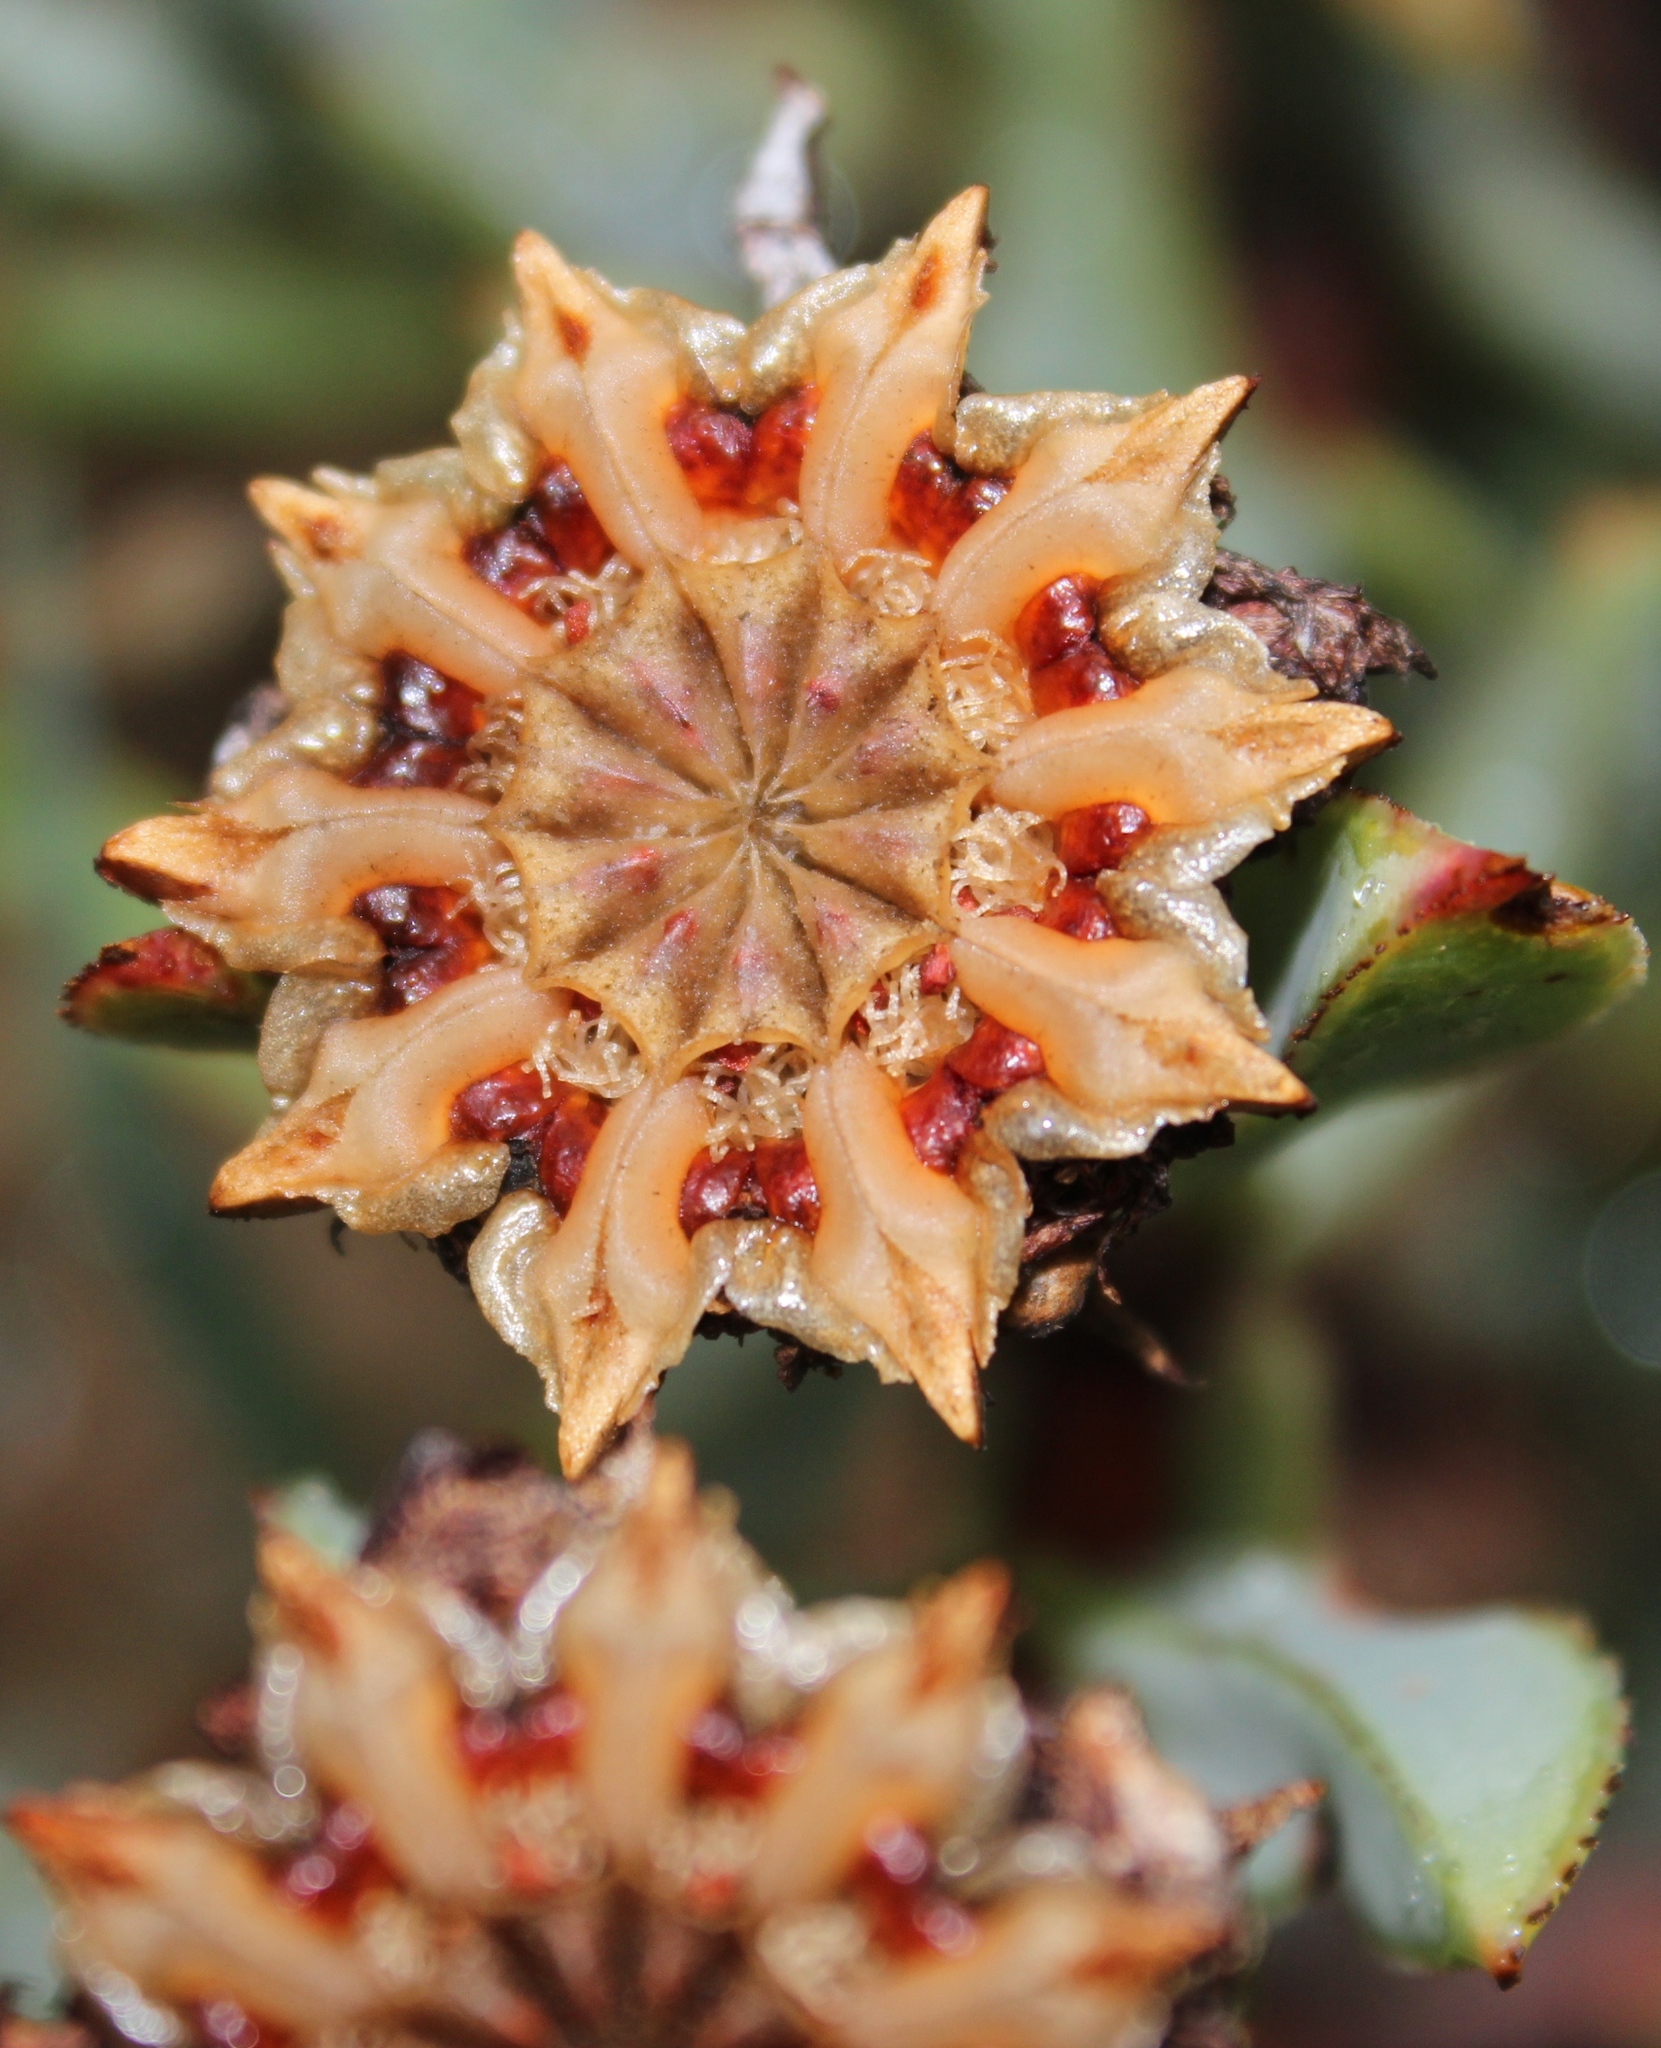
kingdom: Plantae
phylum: Tracheophyta
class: Magnoliopsida
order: Caryophyllales
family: Aizoaceae
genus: Erepsia
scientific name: Erepsia lacera
